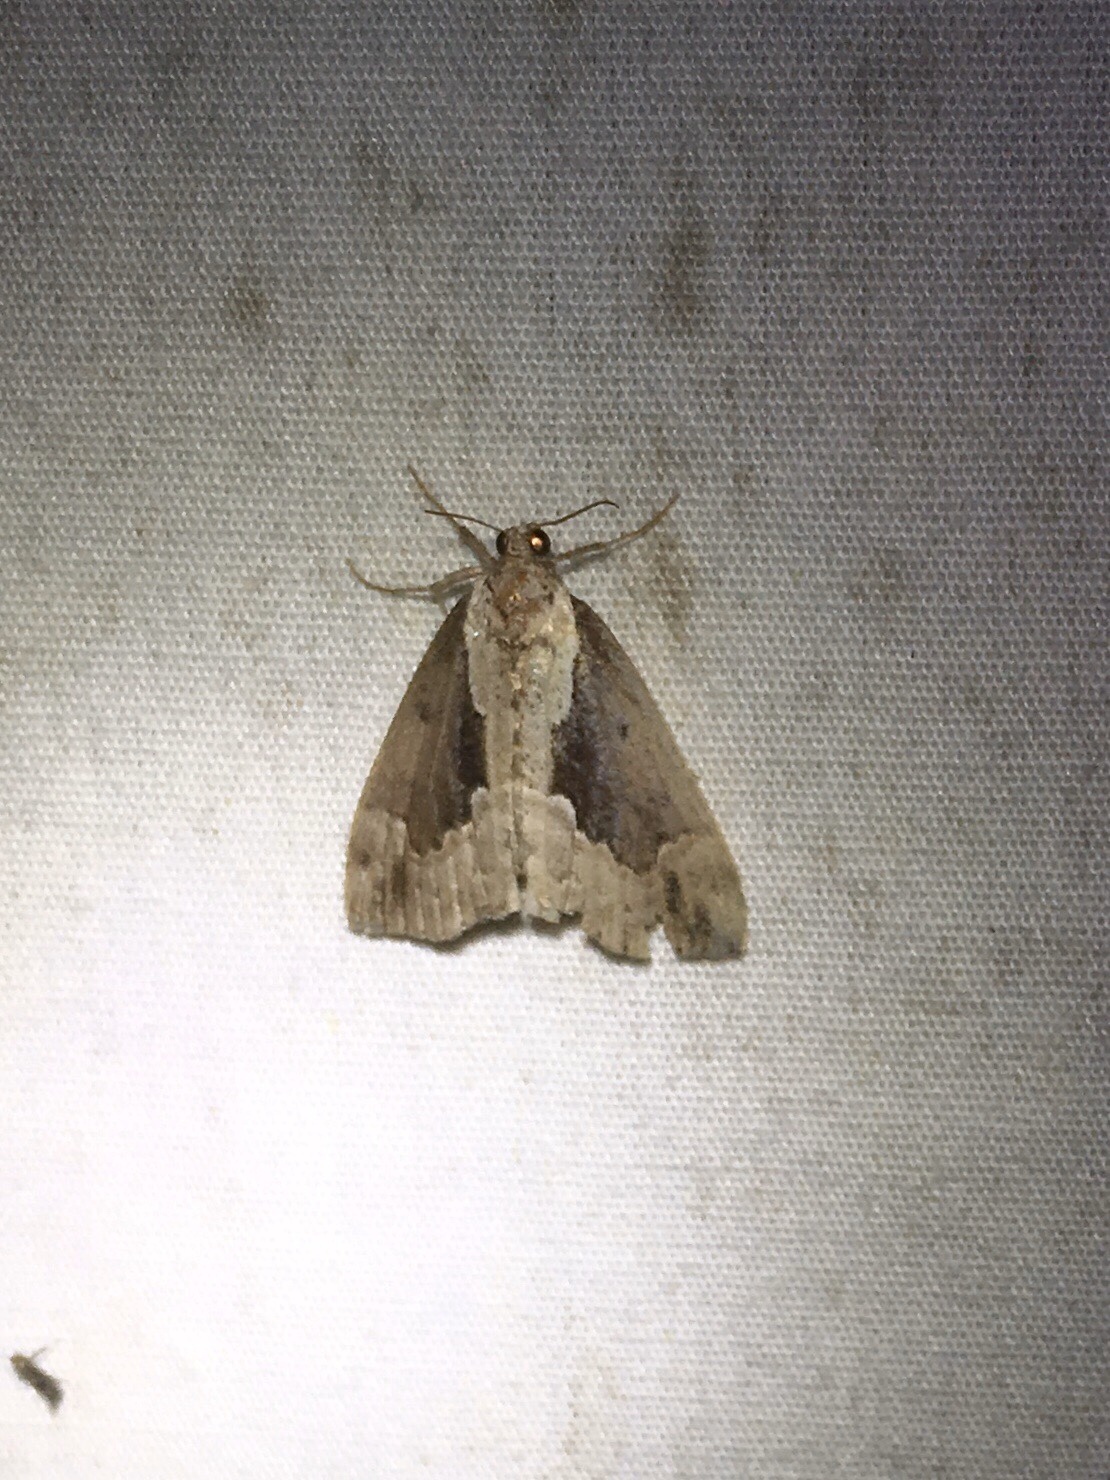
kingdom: Animalia
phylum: Arthropoda
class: Insecta
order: Lepidoptera
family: Erebidae
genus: Hypena
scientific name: Hypena baltimoralis
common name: Baltimore snout
